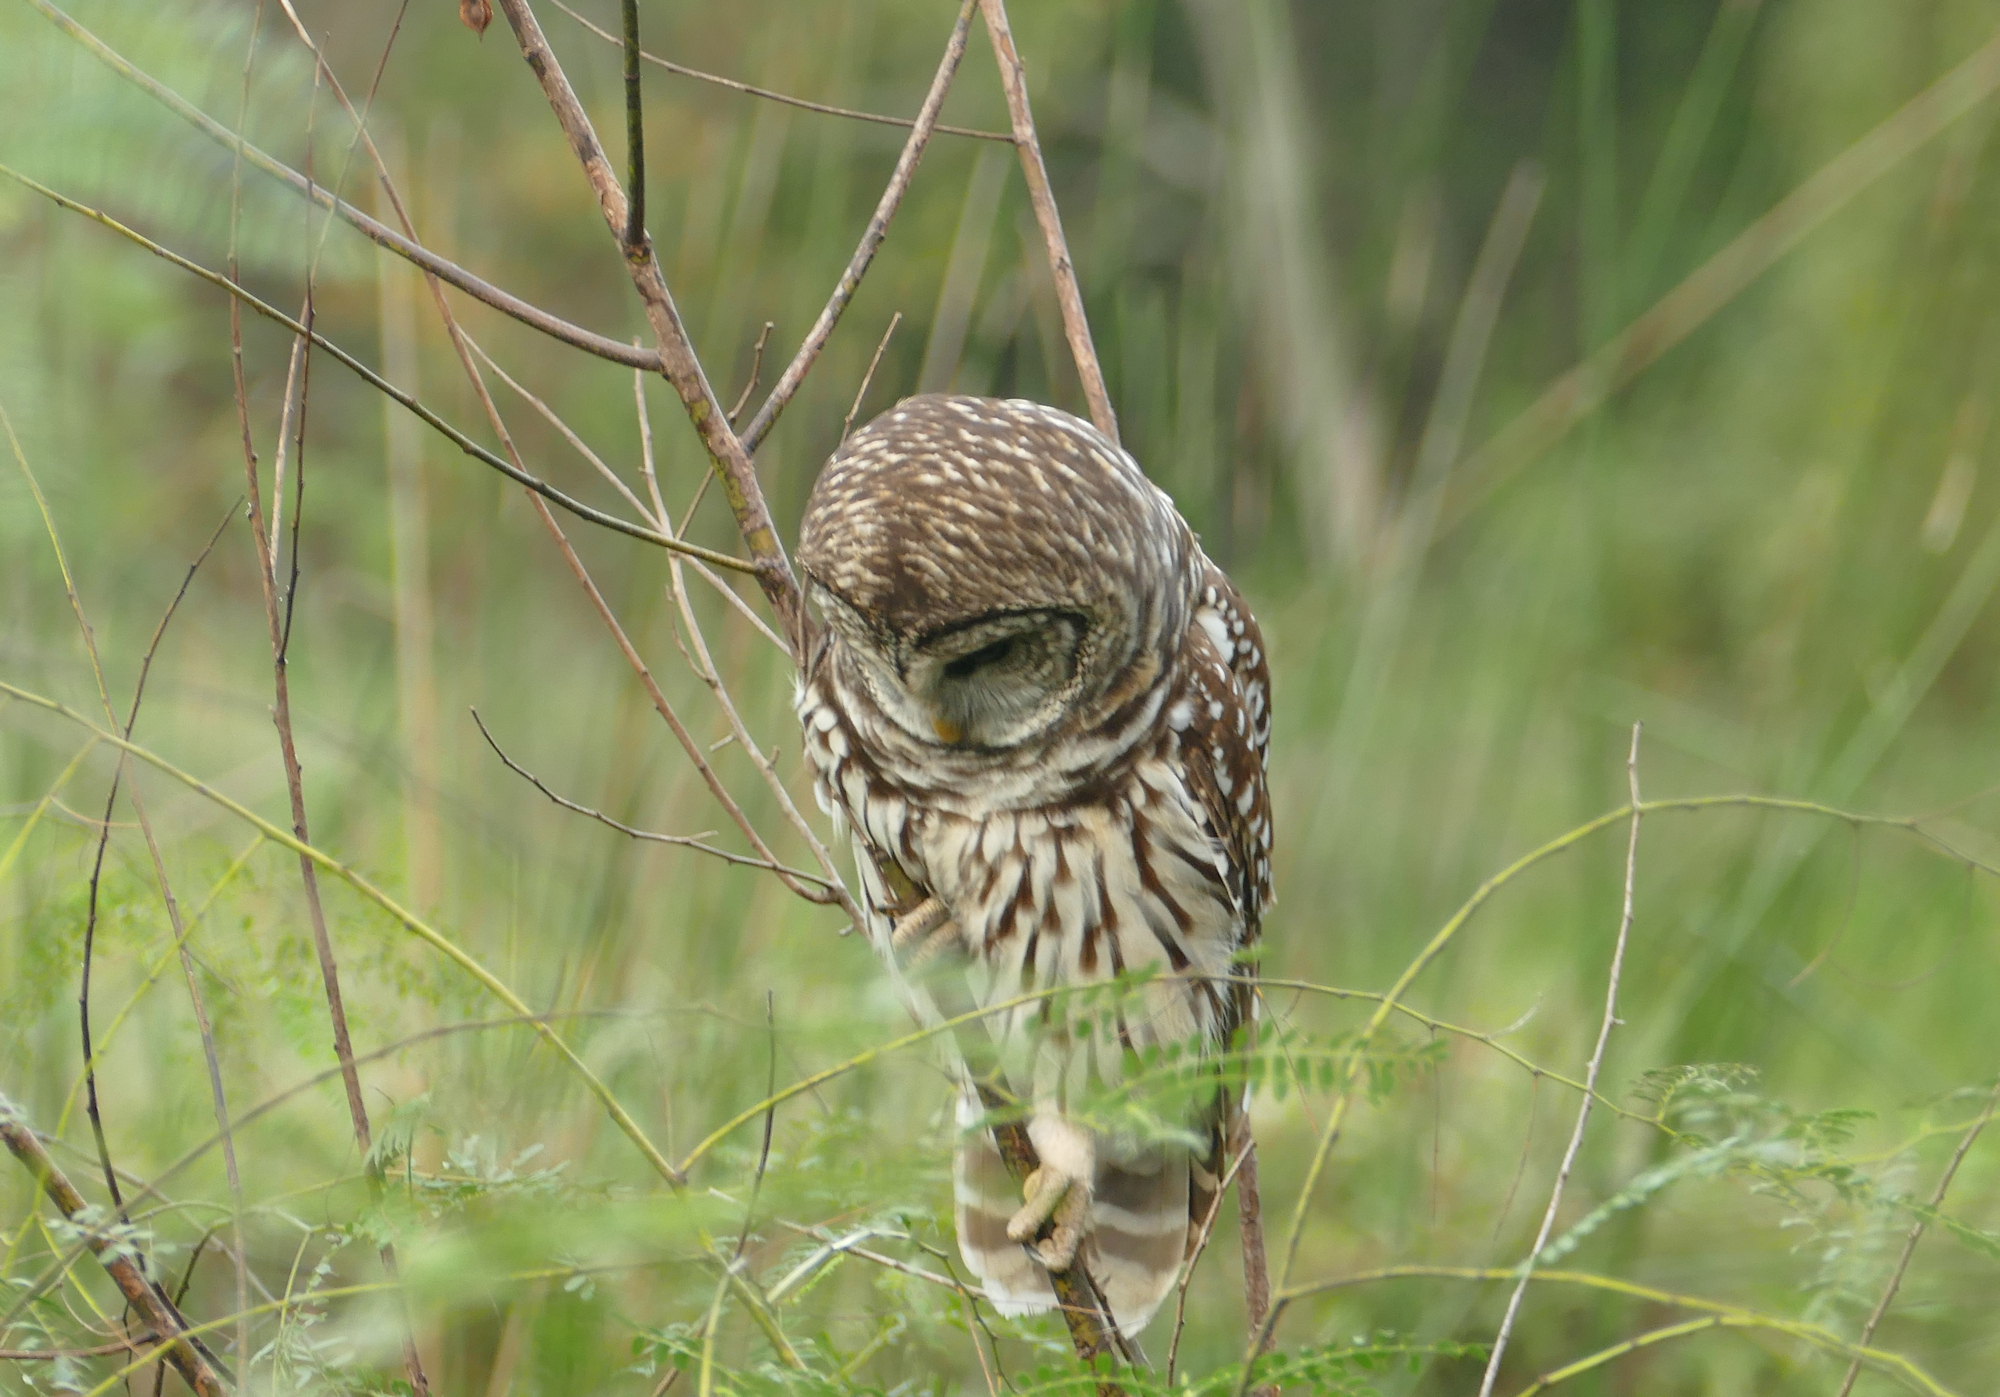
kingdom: Animalia
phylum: Chordata
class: Aves
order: Strigiformes
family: Strigidae
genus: Strix
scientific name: Strix varia
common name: Barred owl
